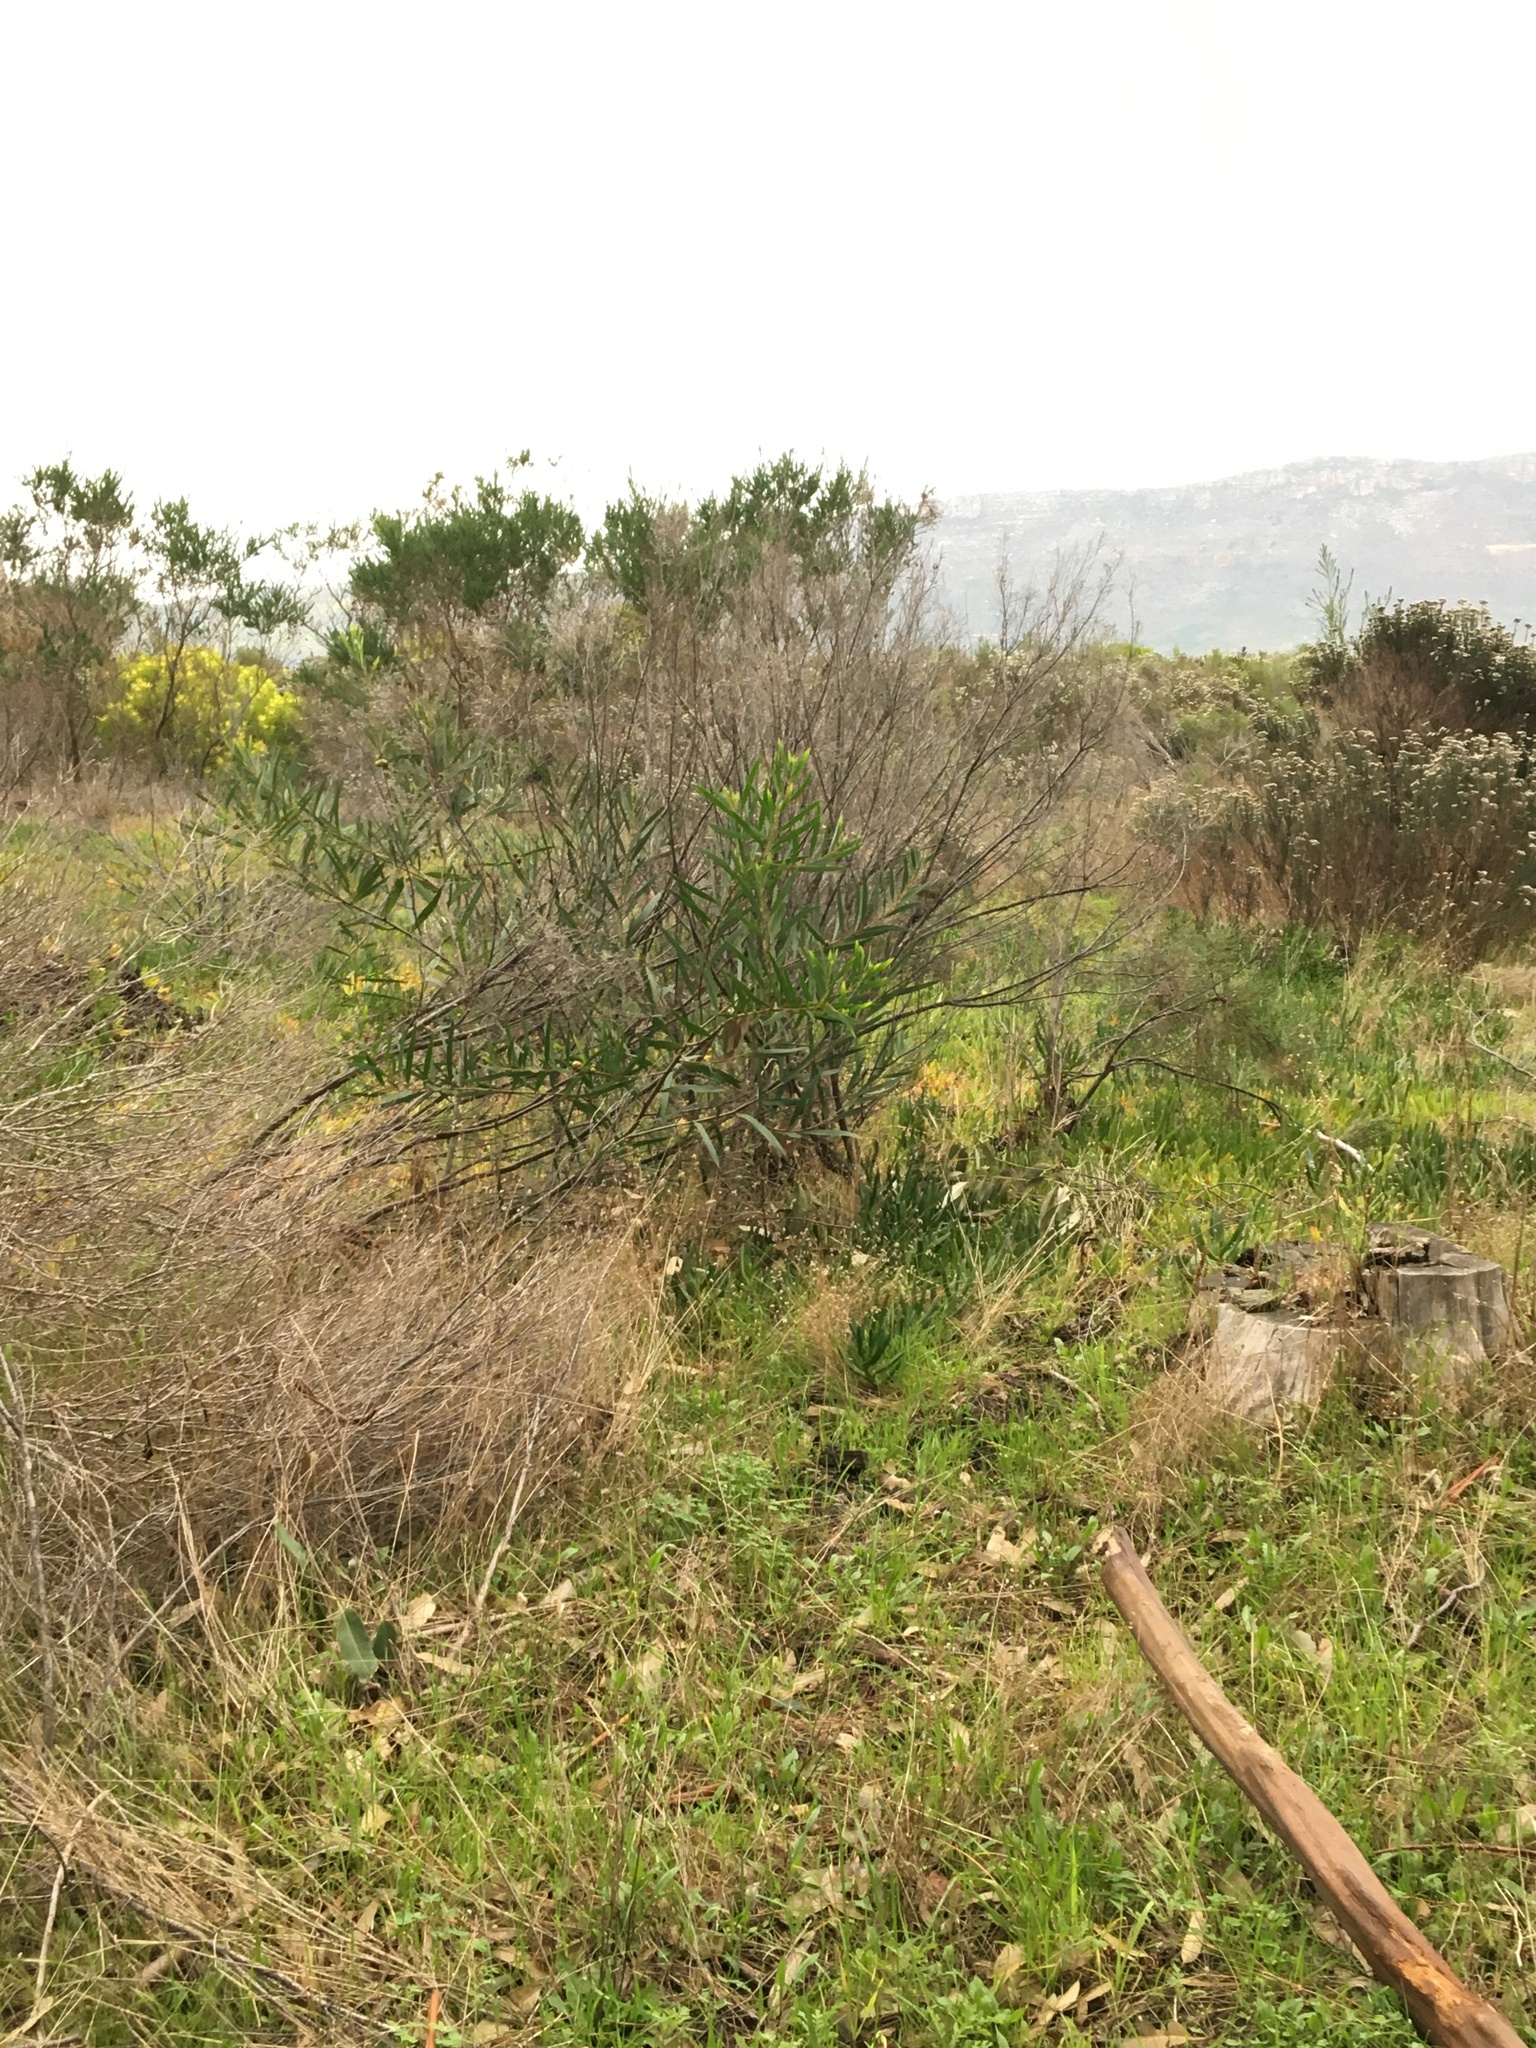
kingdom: Plantae
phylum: Tracheophyta
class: Magnoliopsida
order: Fabales
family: Fabaceae
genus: Acacia
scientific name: Acacia longifolia
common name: Sydney golden wattle
